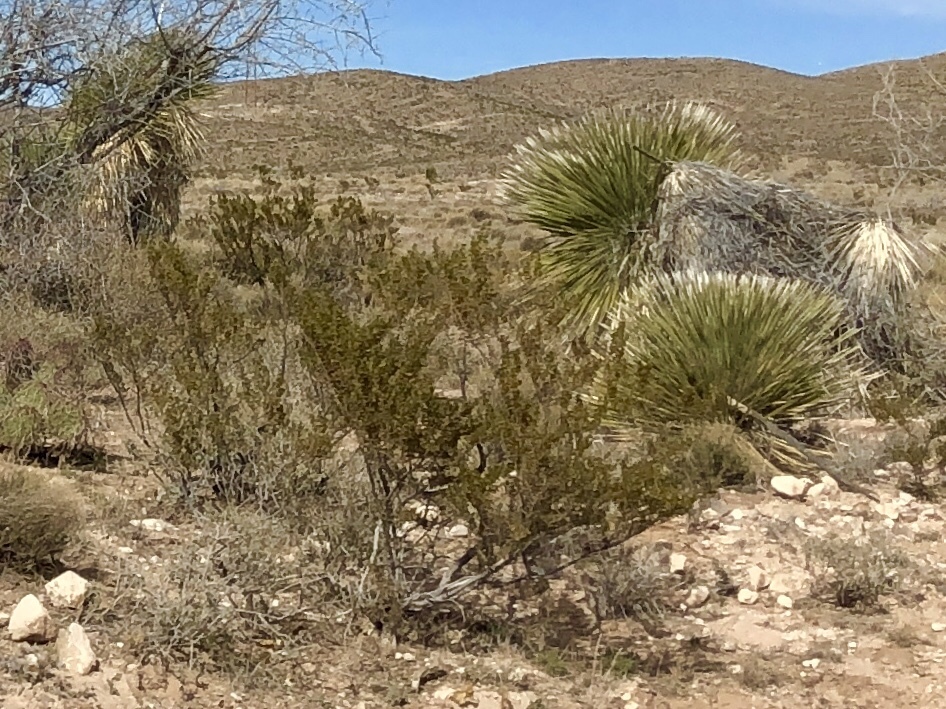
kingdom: Plantae
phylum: Tracheophyta
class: Magnoliopsida
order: Zygophyllales
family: Zygophyllaceae
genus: Larrea
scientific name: Larrea tridentata
